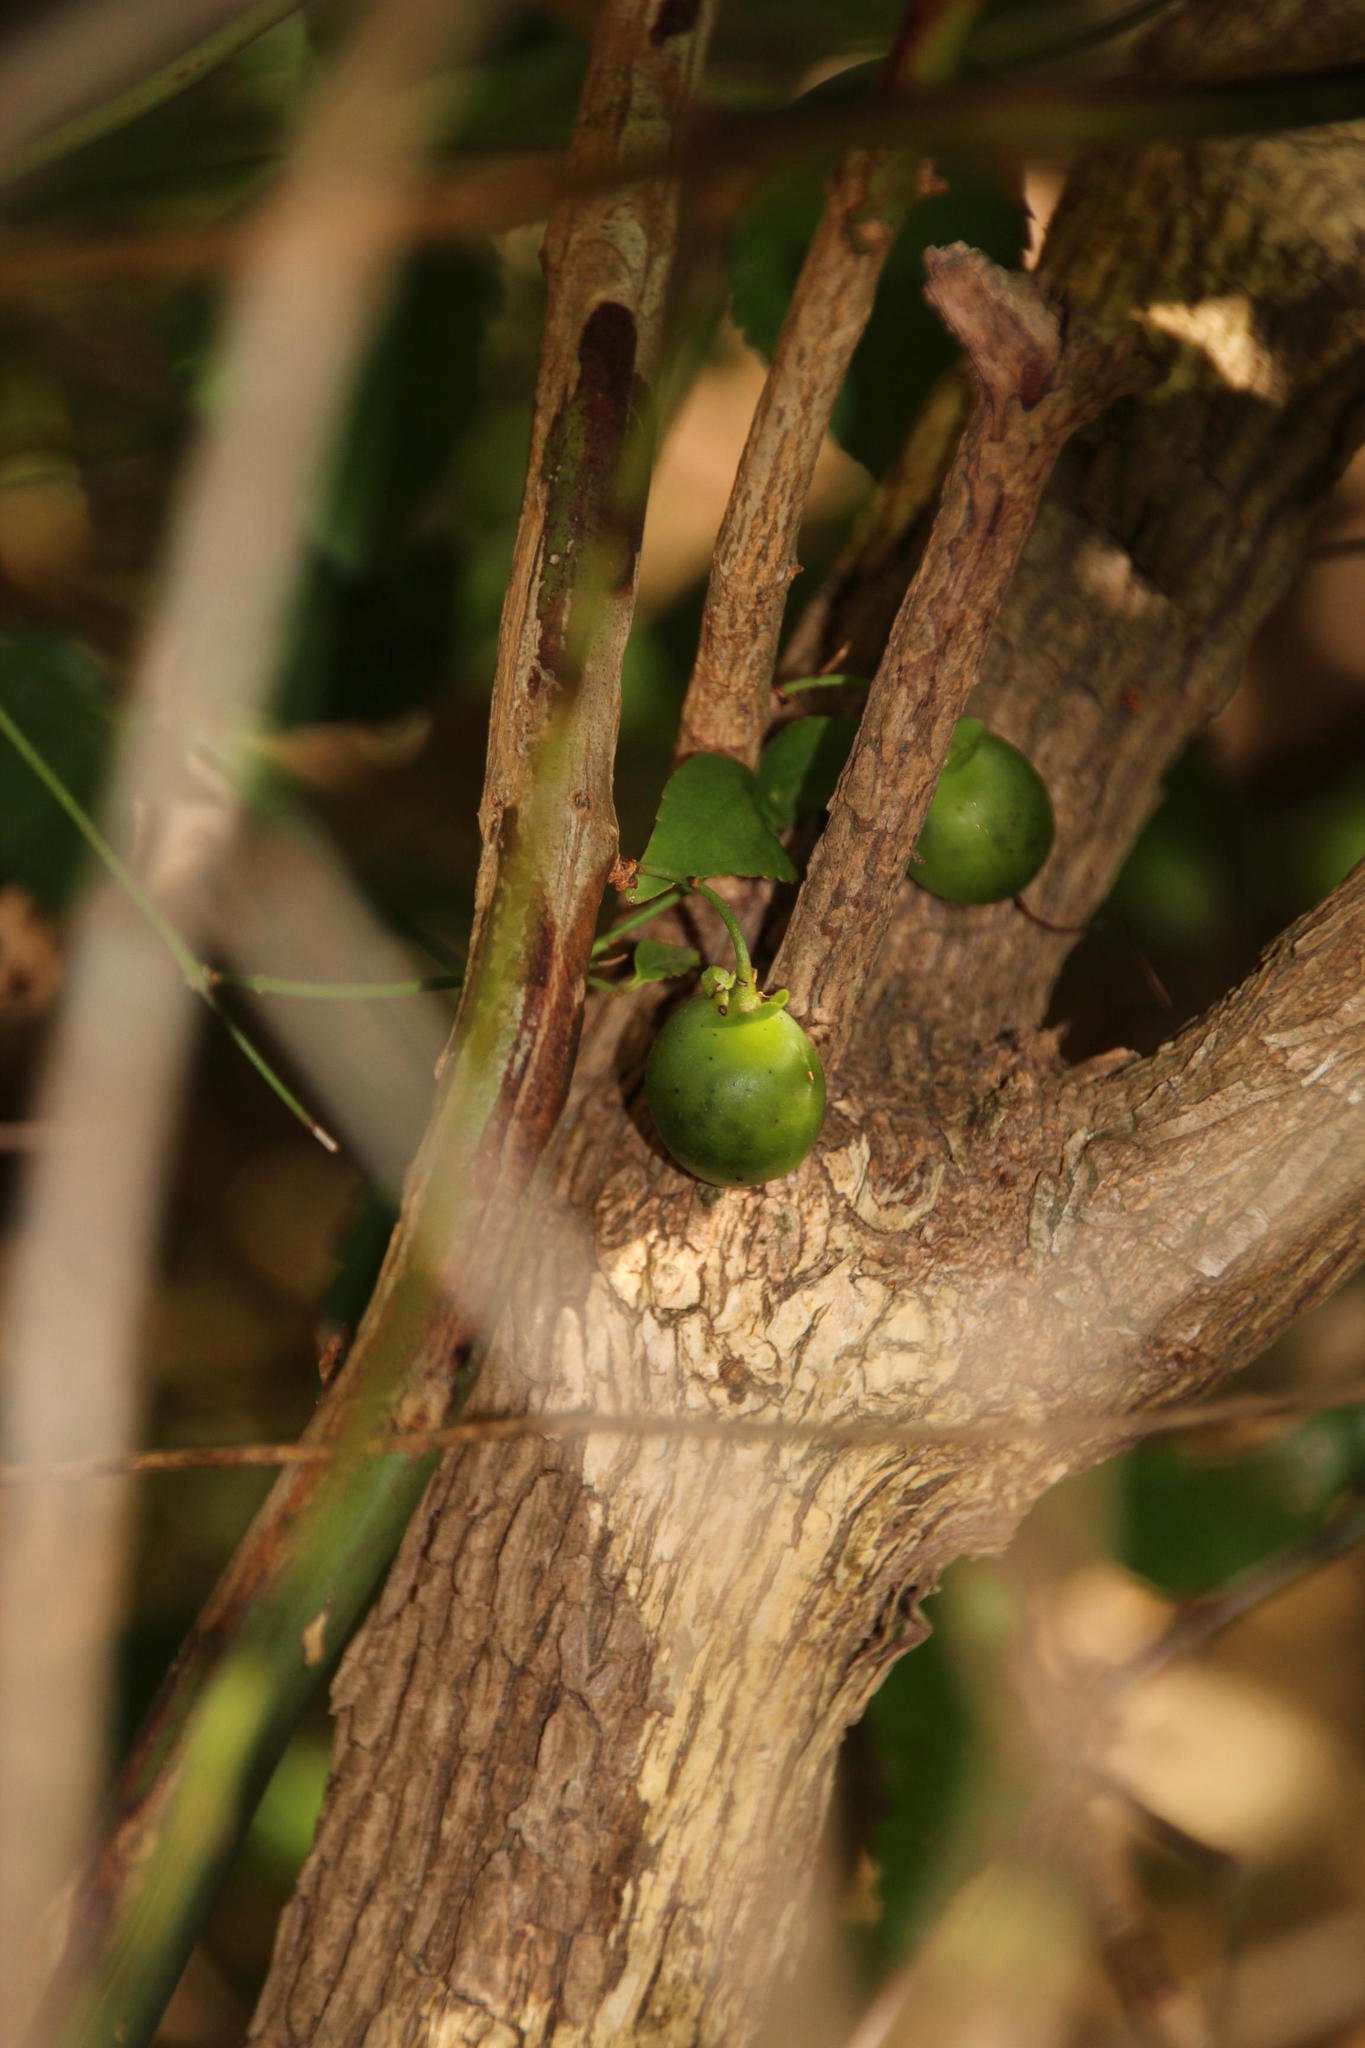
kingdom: Plantae
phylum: Tracheophyta
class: Magnoliopsida
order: Lamiales
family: Stilbaceae
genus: Halleria
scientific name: Halleria lucida
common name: Tree fuschia
